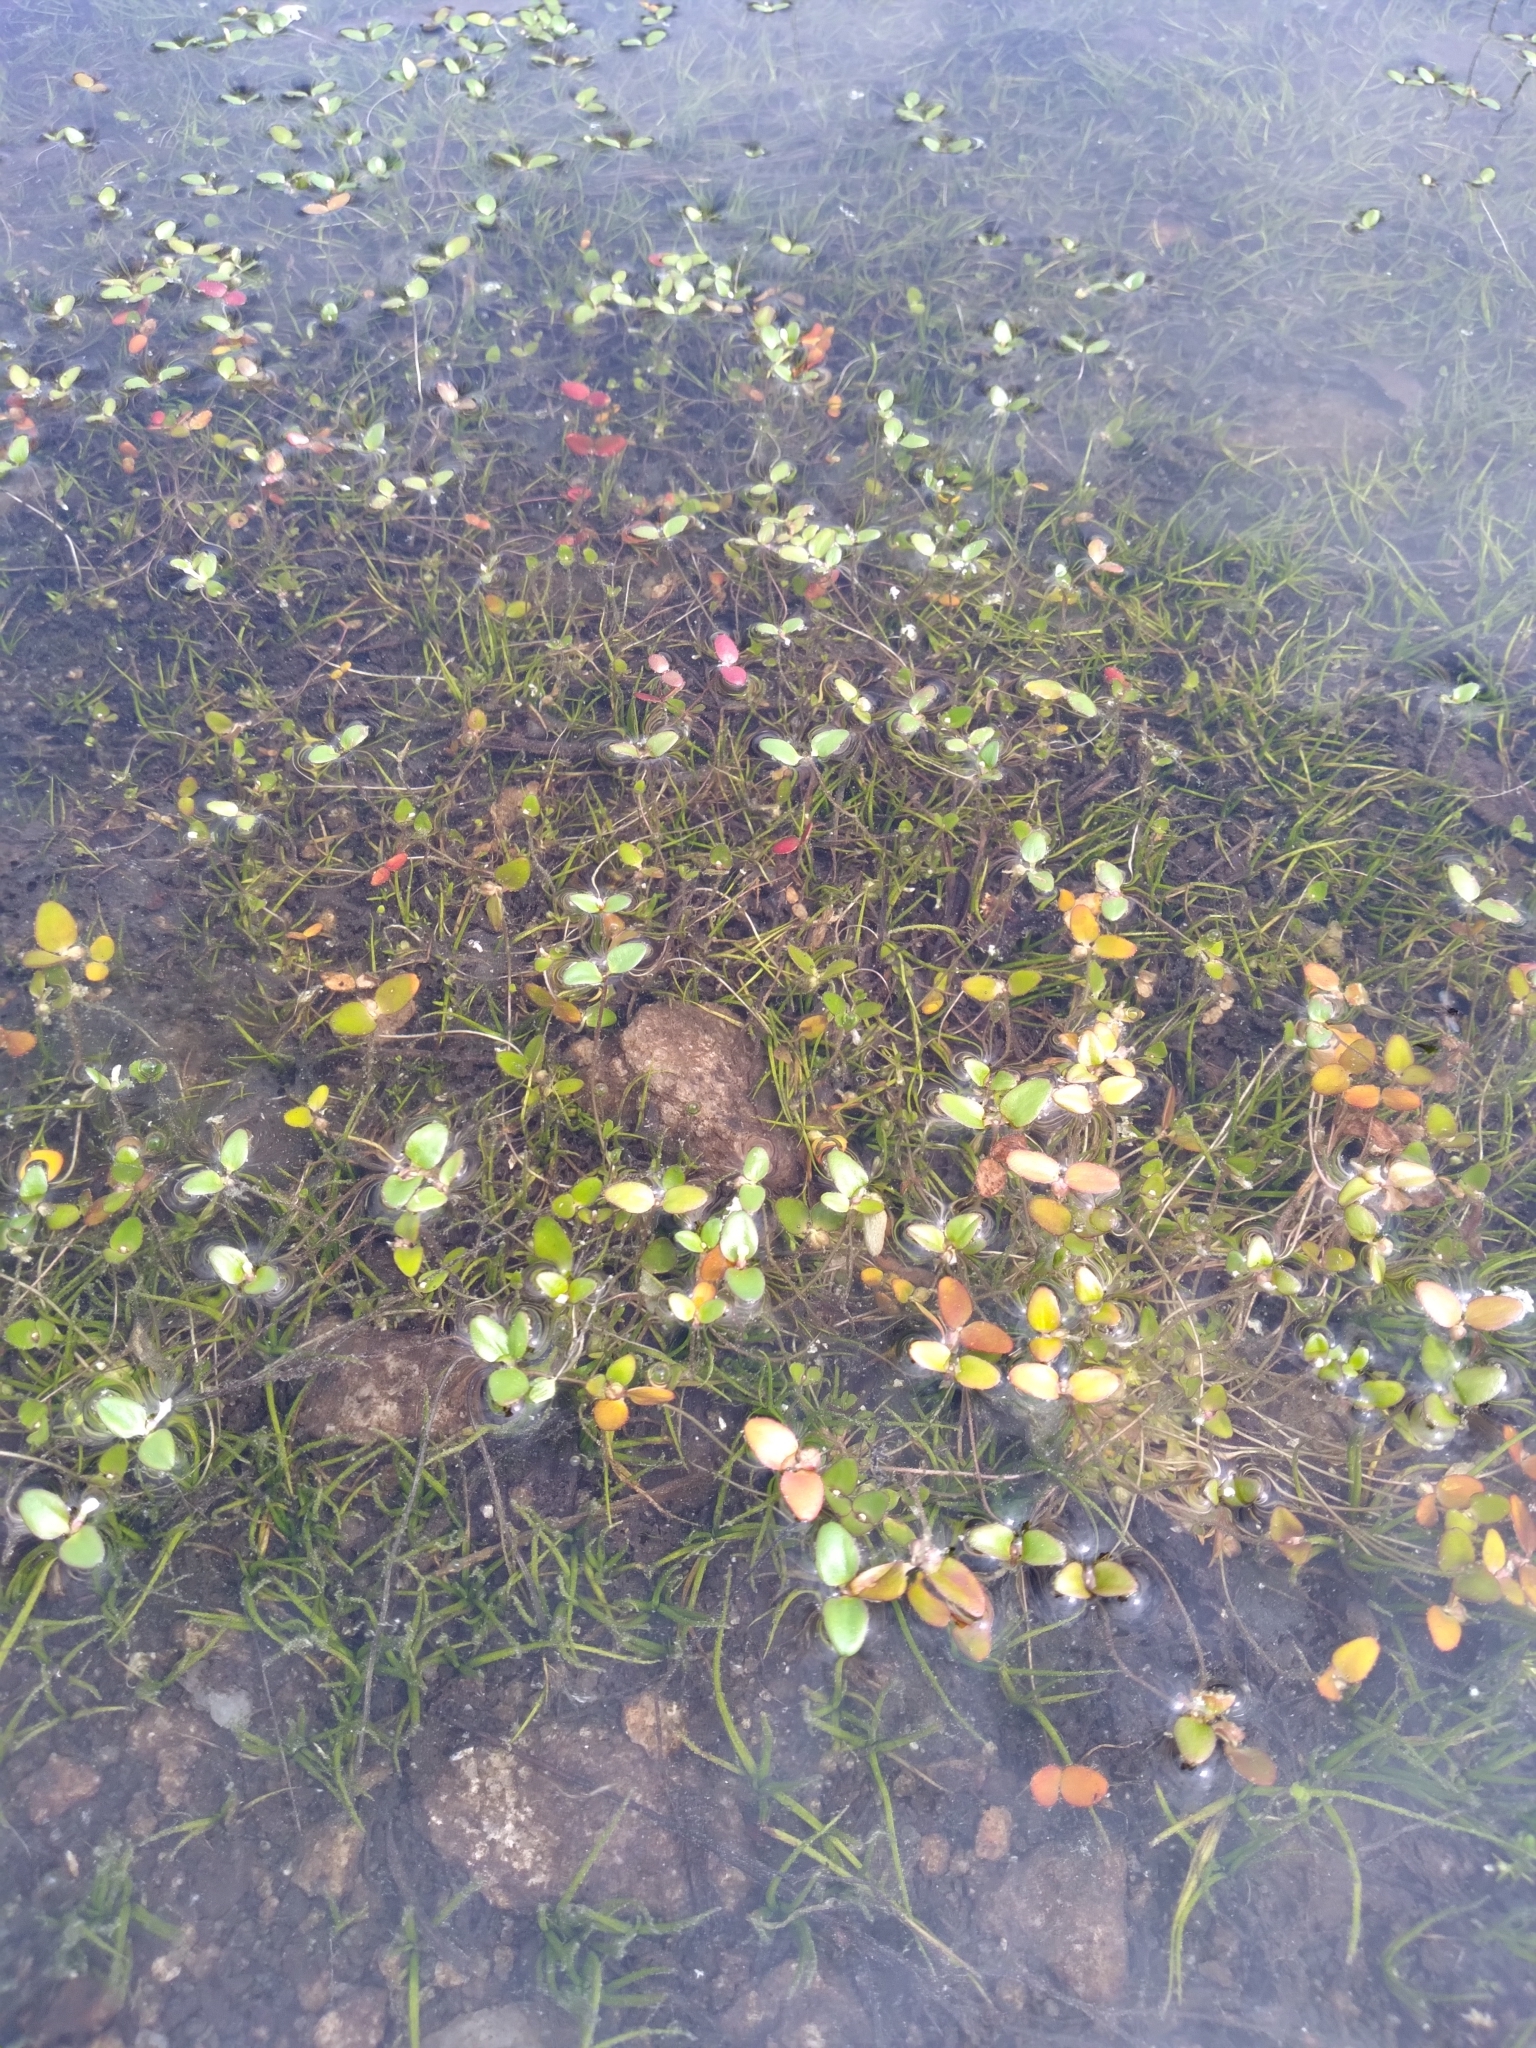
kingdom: Plantae
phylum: Tracheophyta
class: Magnoliopsida
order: Lamiales
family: Plantaginaceae
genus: Gratiola
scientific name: Gratiola amphiantha
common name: Little amphianthus
